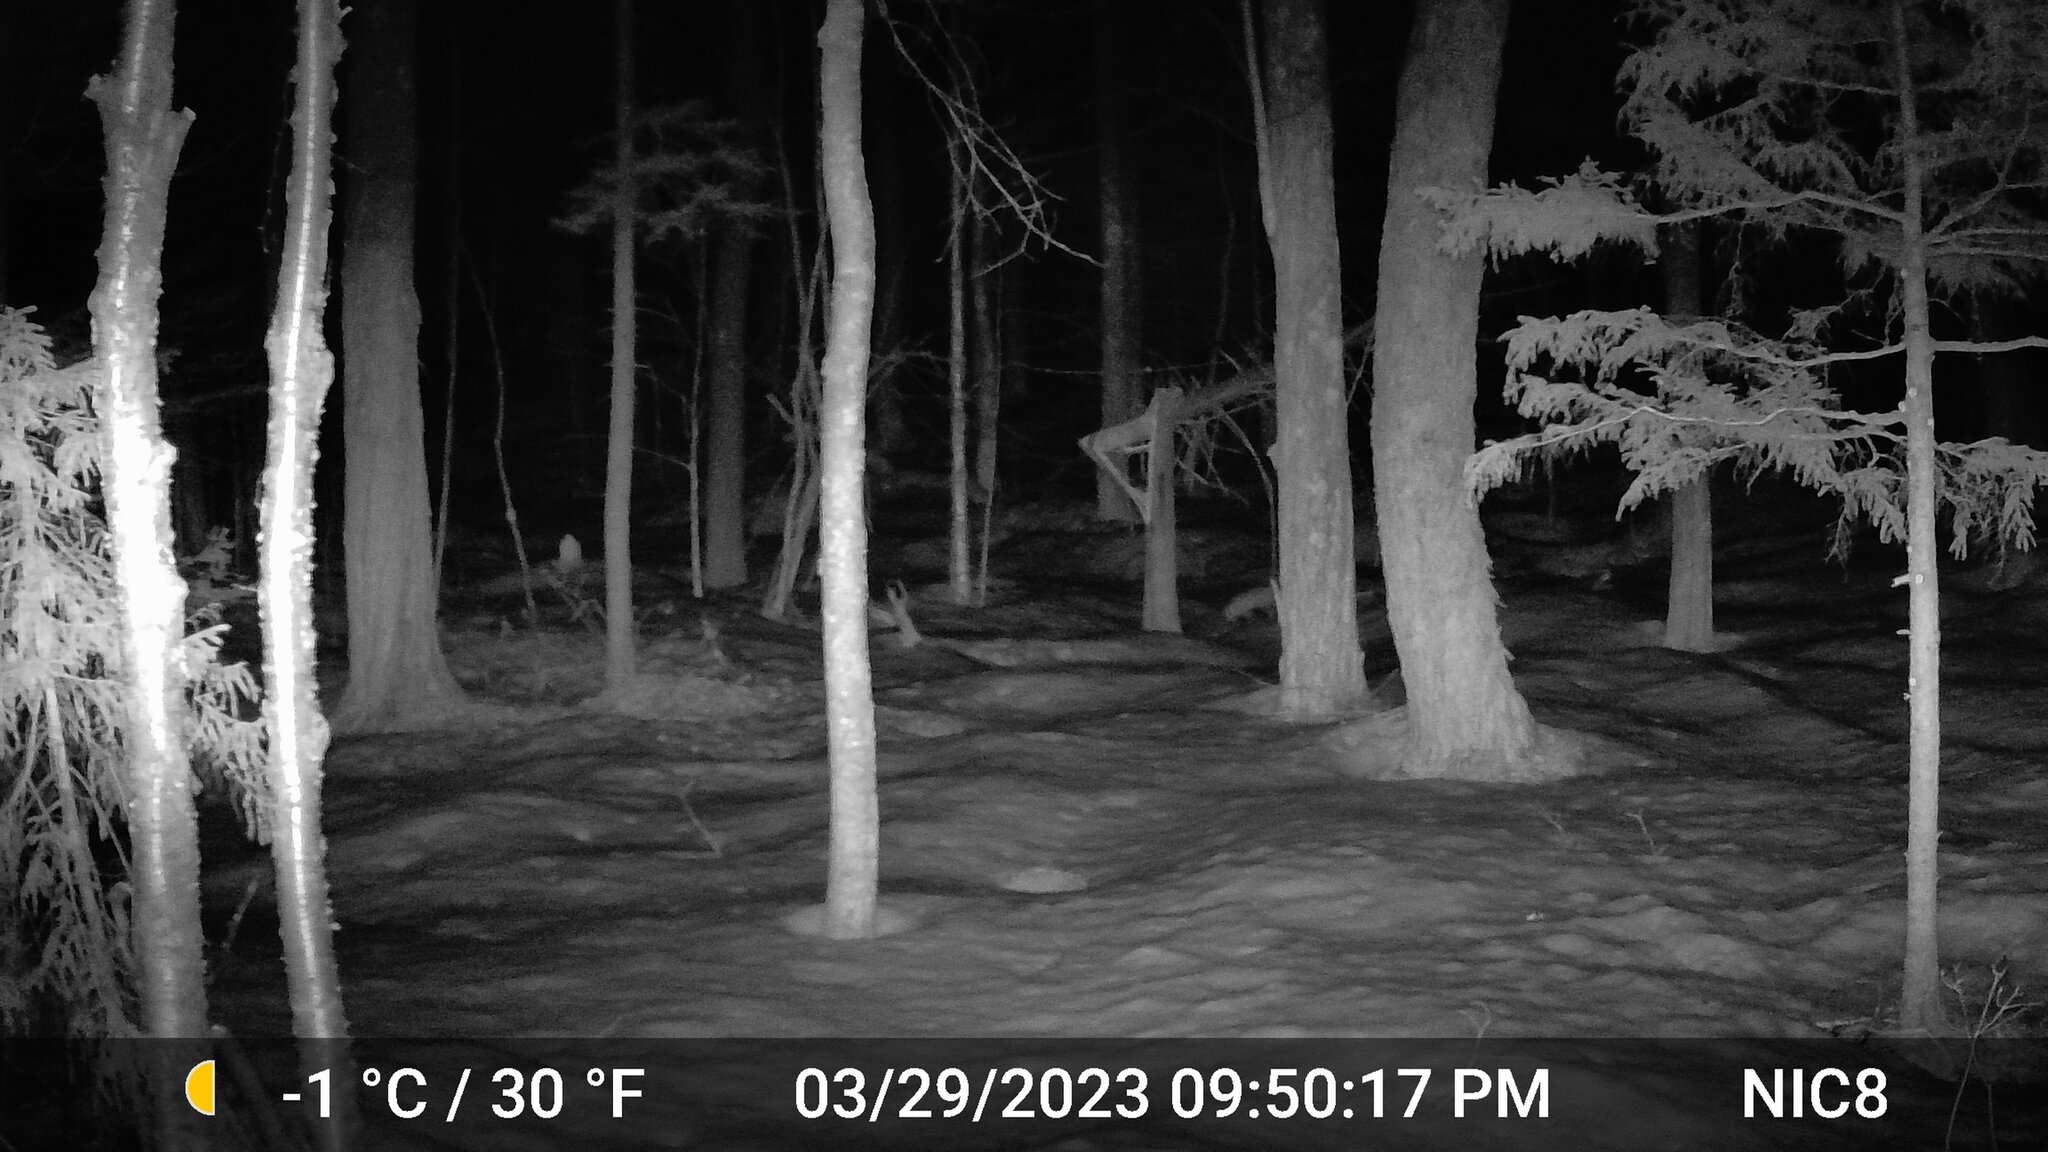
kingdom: Animalia
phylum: Chordata
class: Mammalia
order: Carnivora
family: Canidae
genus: Vulpes
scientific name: Vulpes vulpes
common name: Red fox
